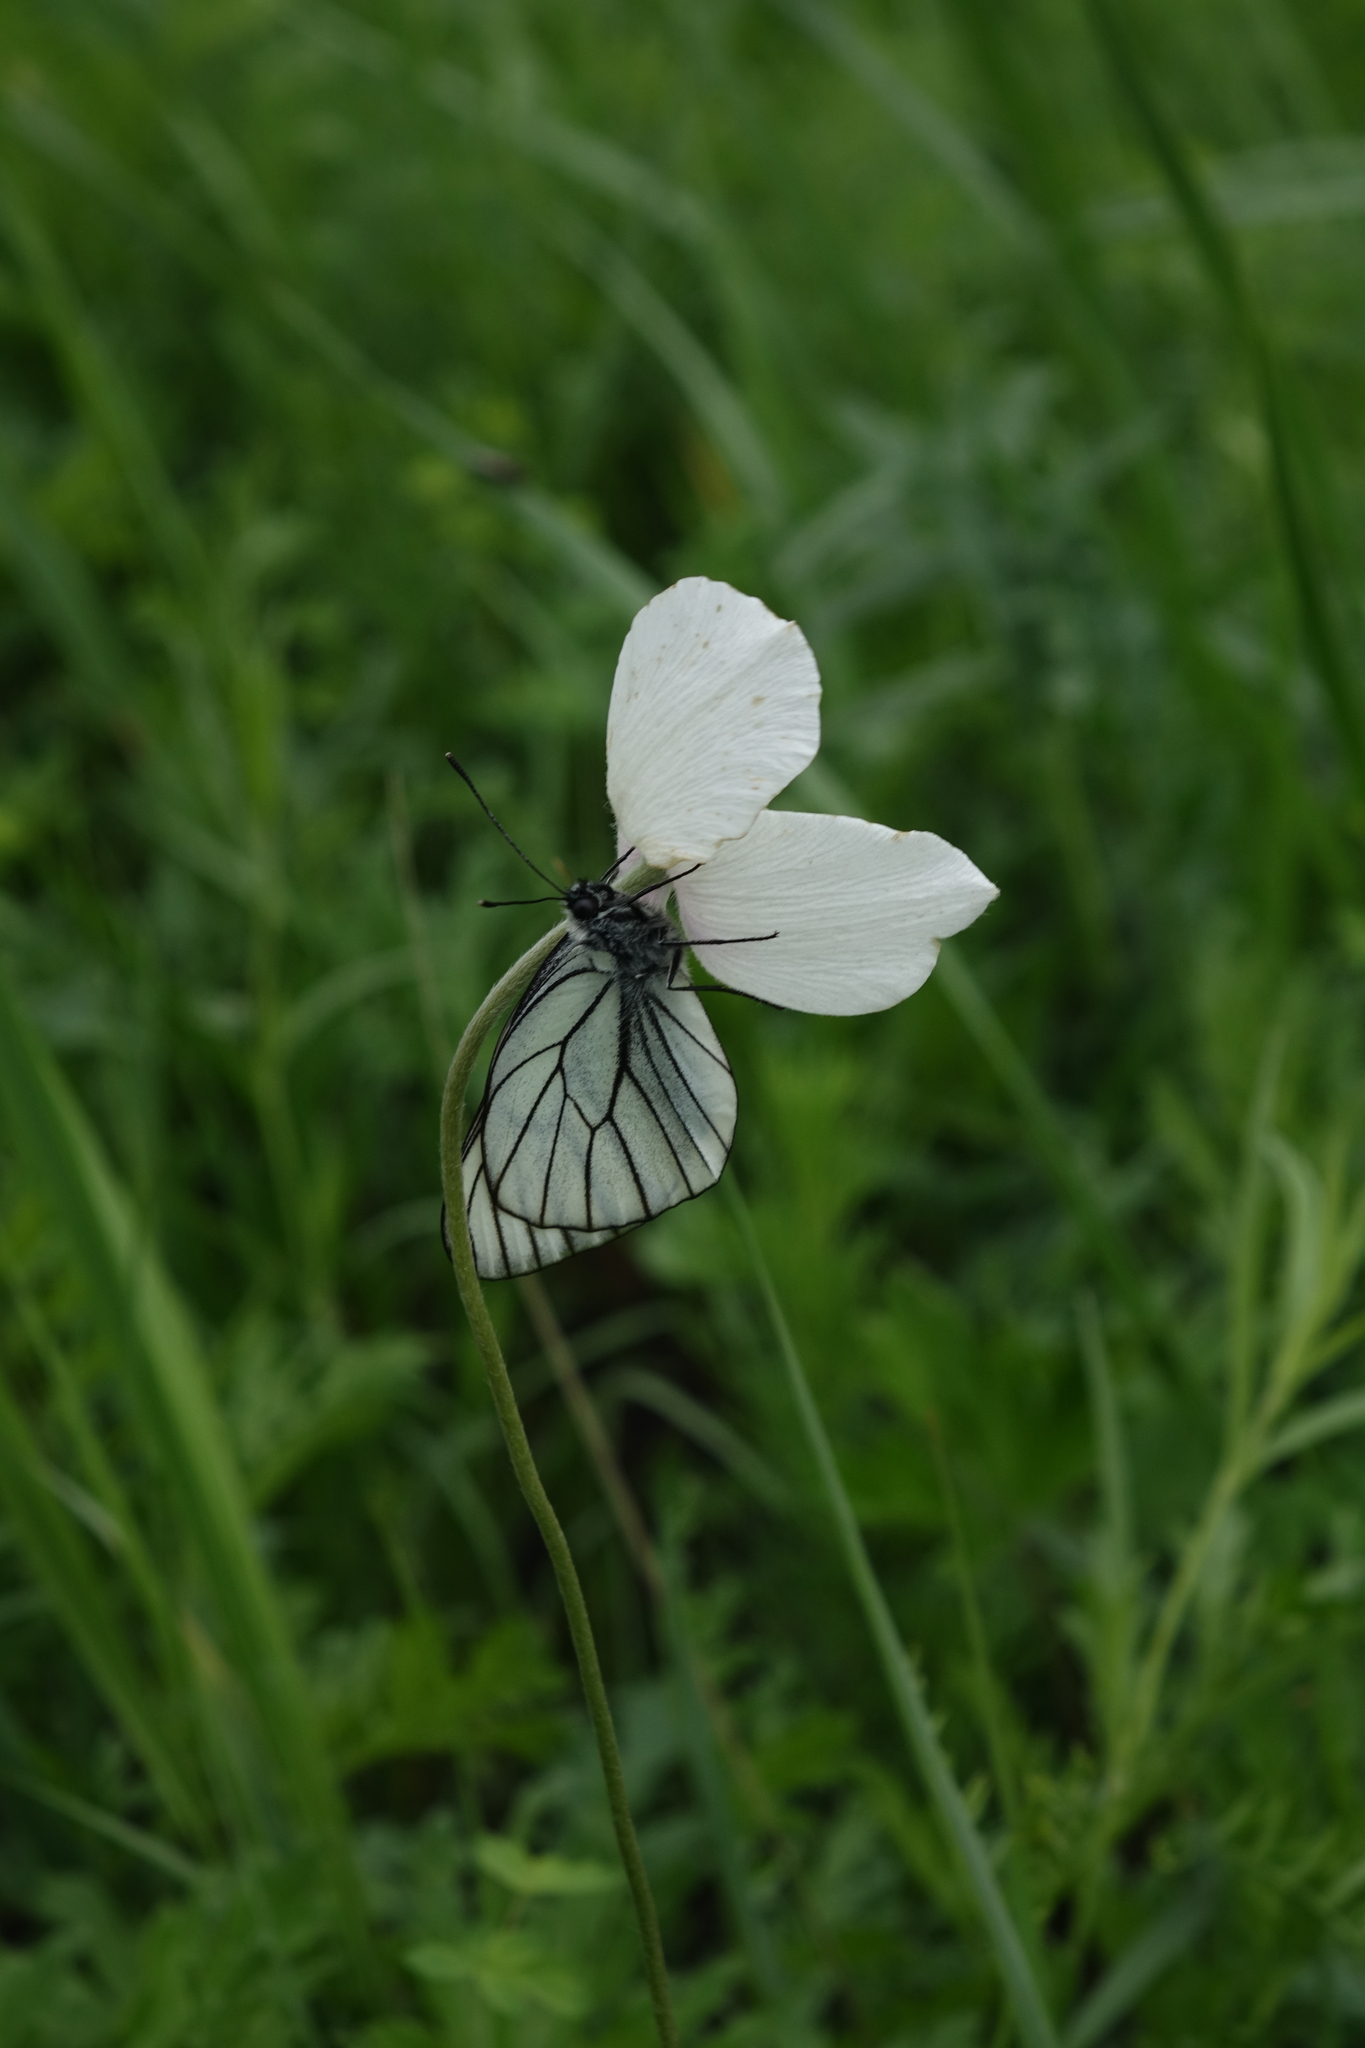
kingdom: Animalia
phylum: Arthropoda
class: Insecta
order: Lepidoptera
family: Pieridae
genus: Aporia
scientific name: Aporia crataegi
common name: Black-veined white
